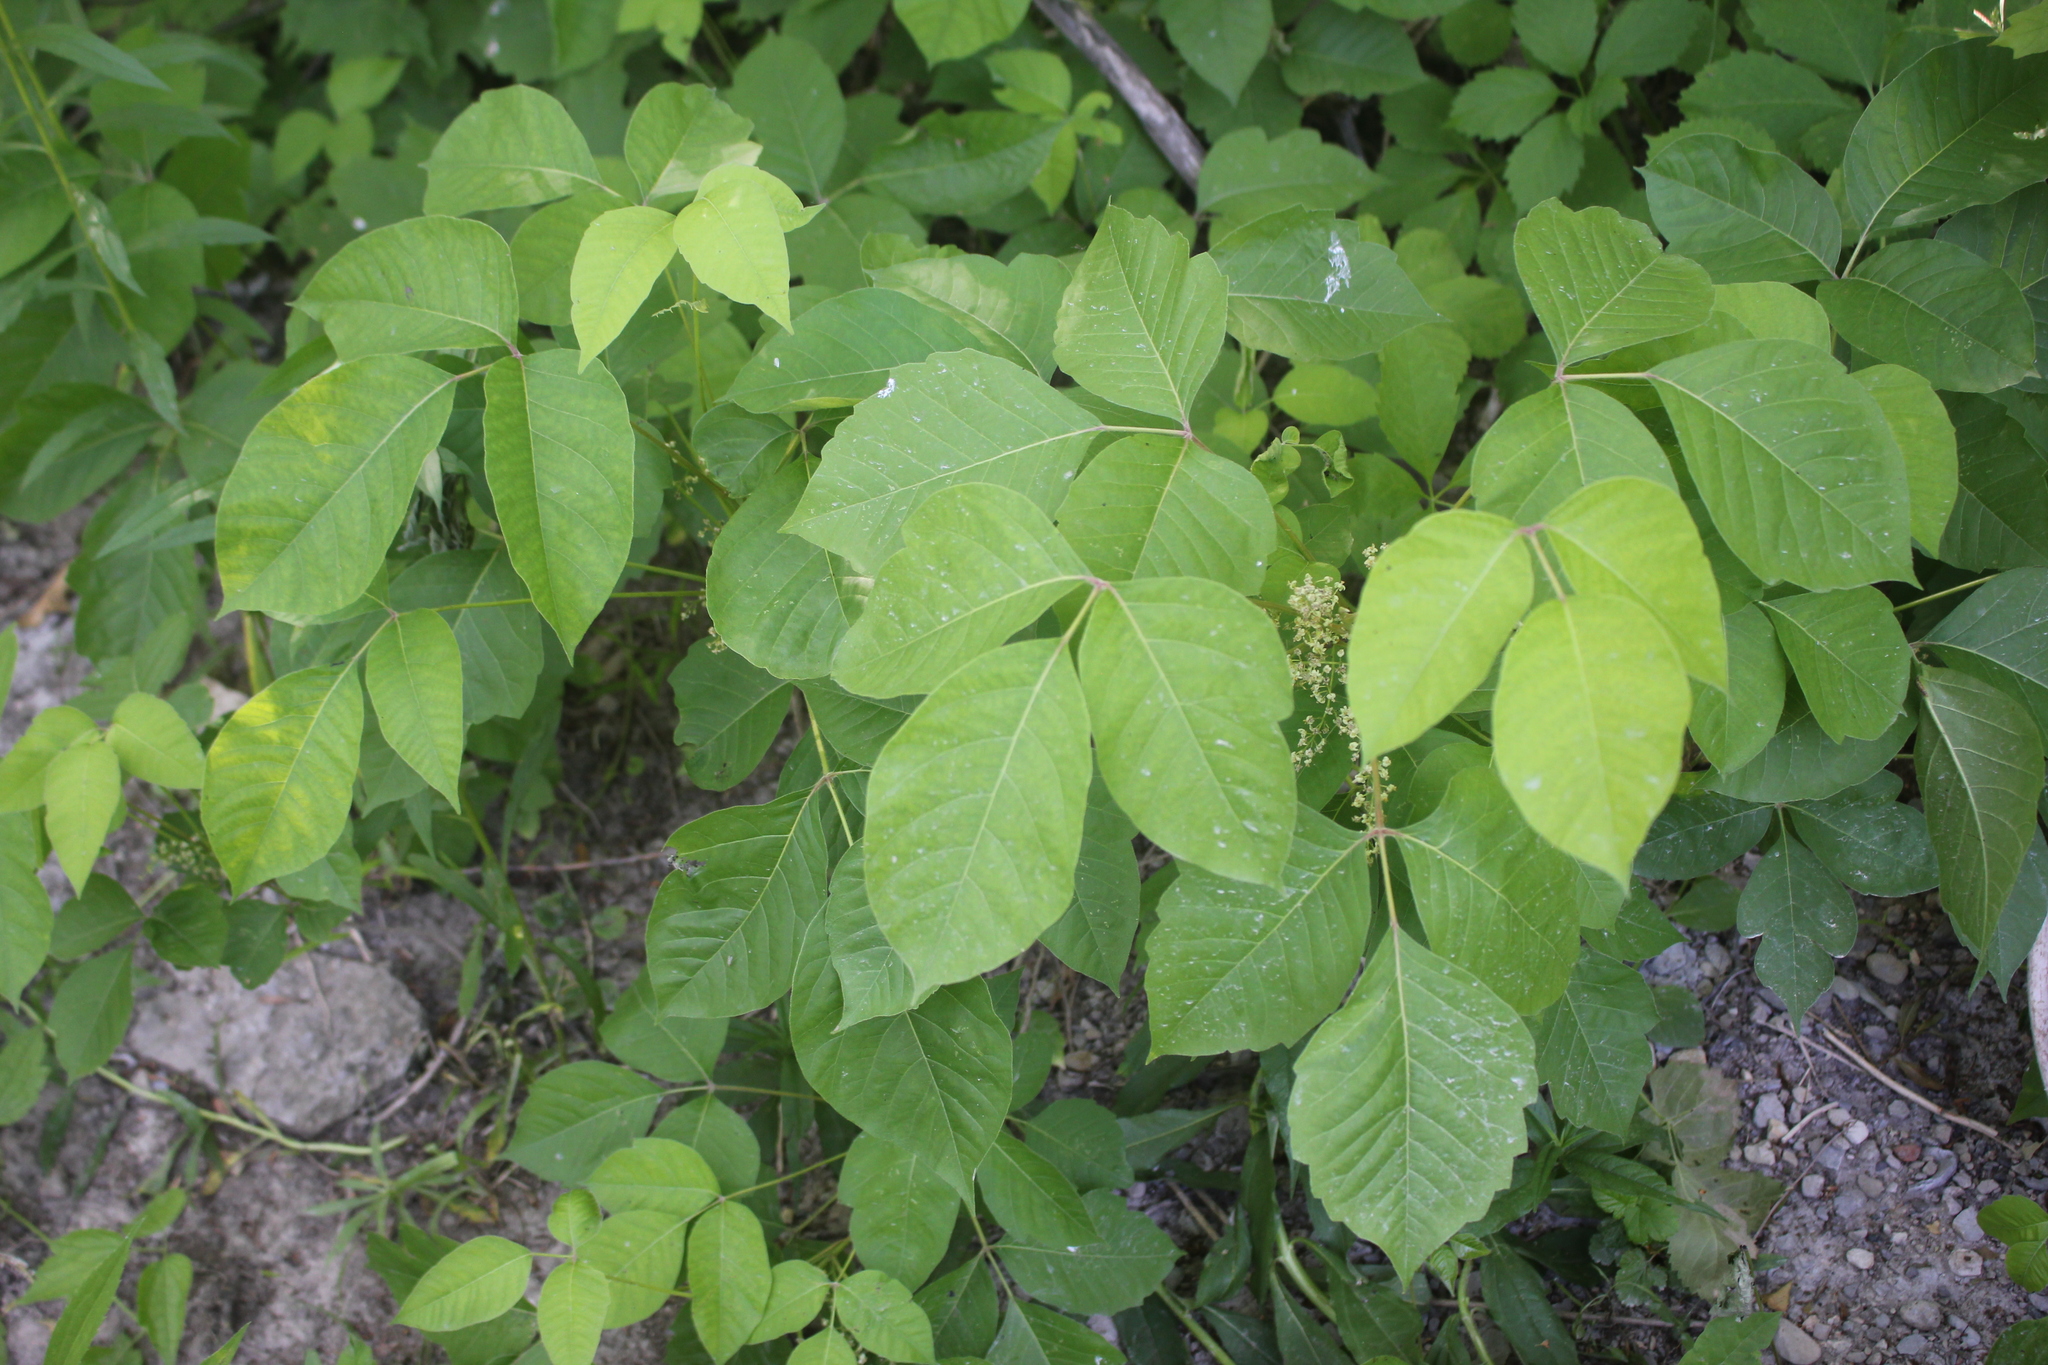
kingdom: Plantae
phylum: Tracheophyta
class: Magnoliopsida
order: Sapindales
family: Anacardiaceae
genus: Toxicodendron
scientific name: Toxicodendron rydbergii
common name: Rydberg's poison-ivy
